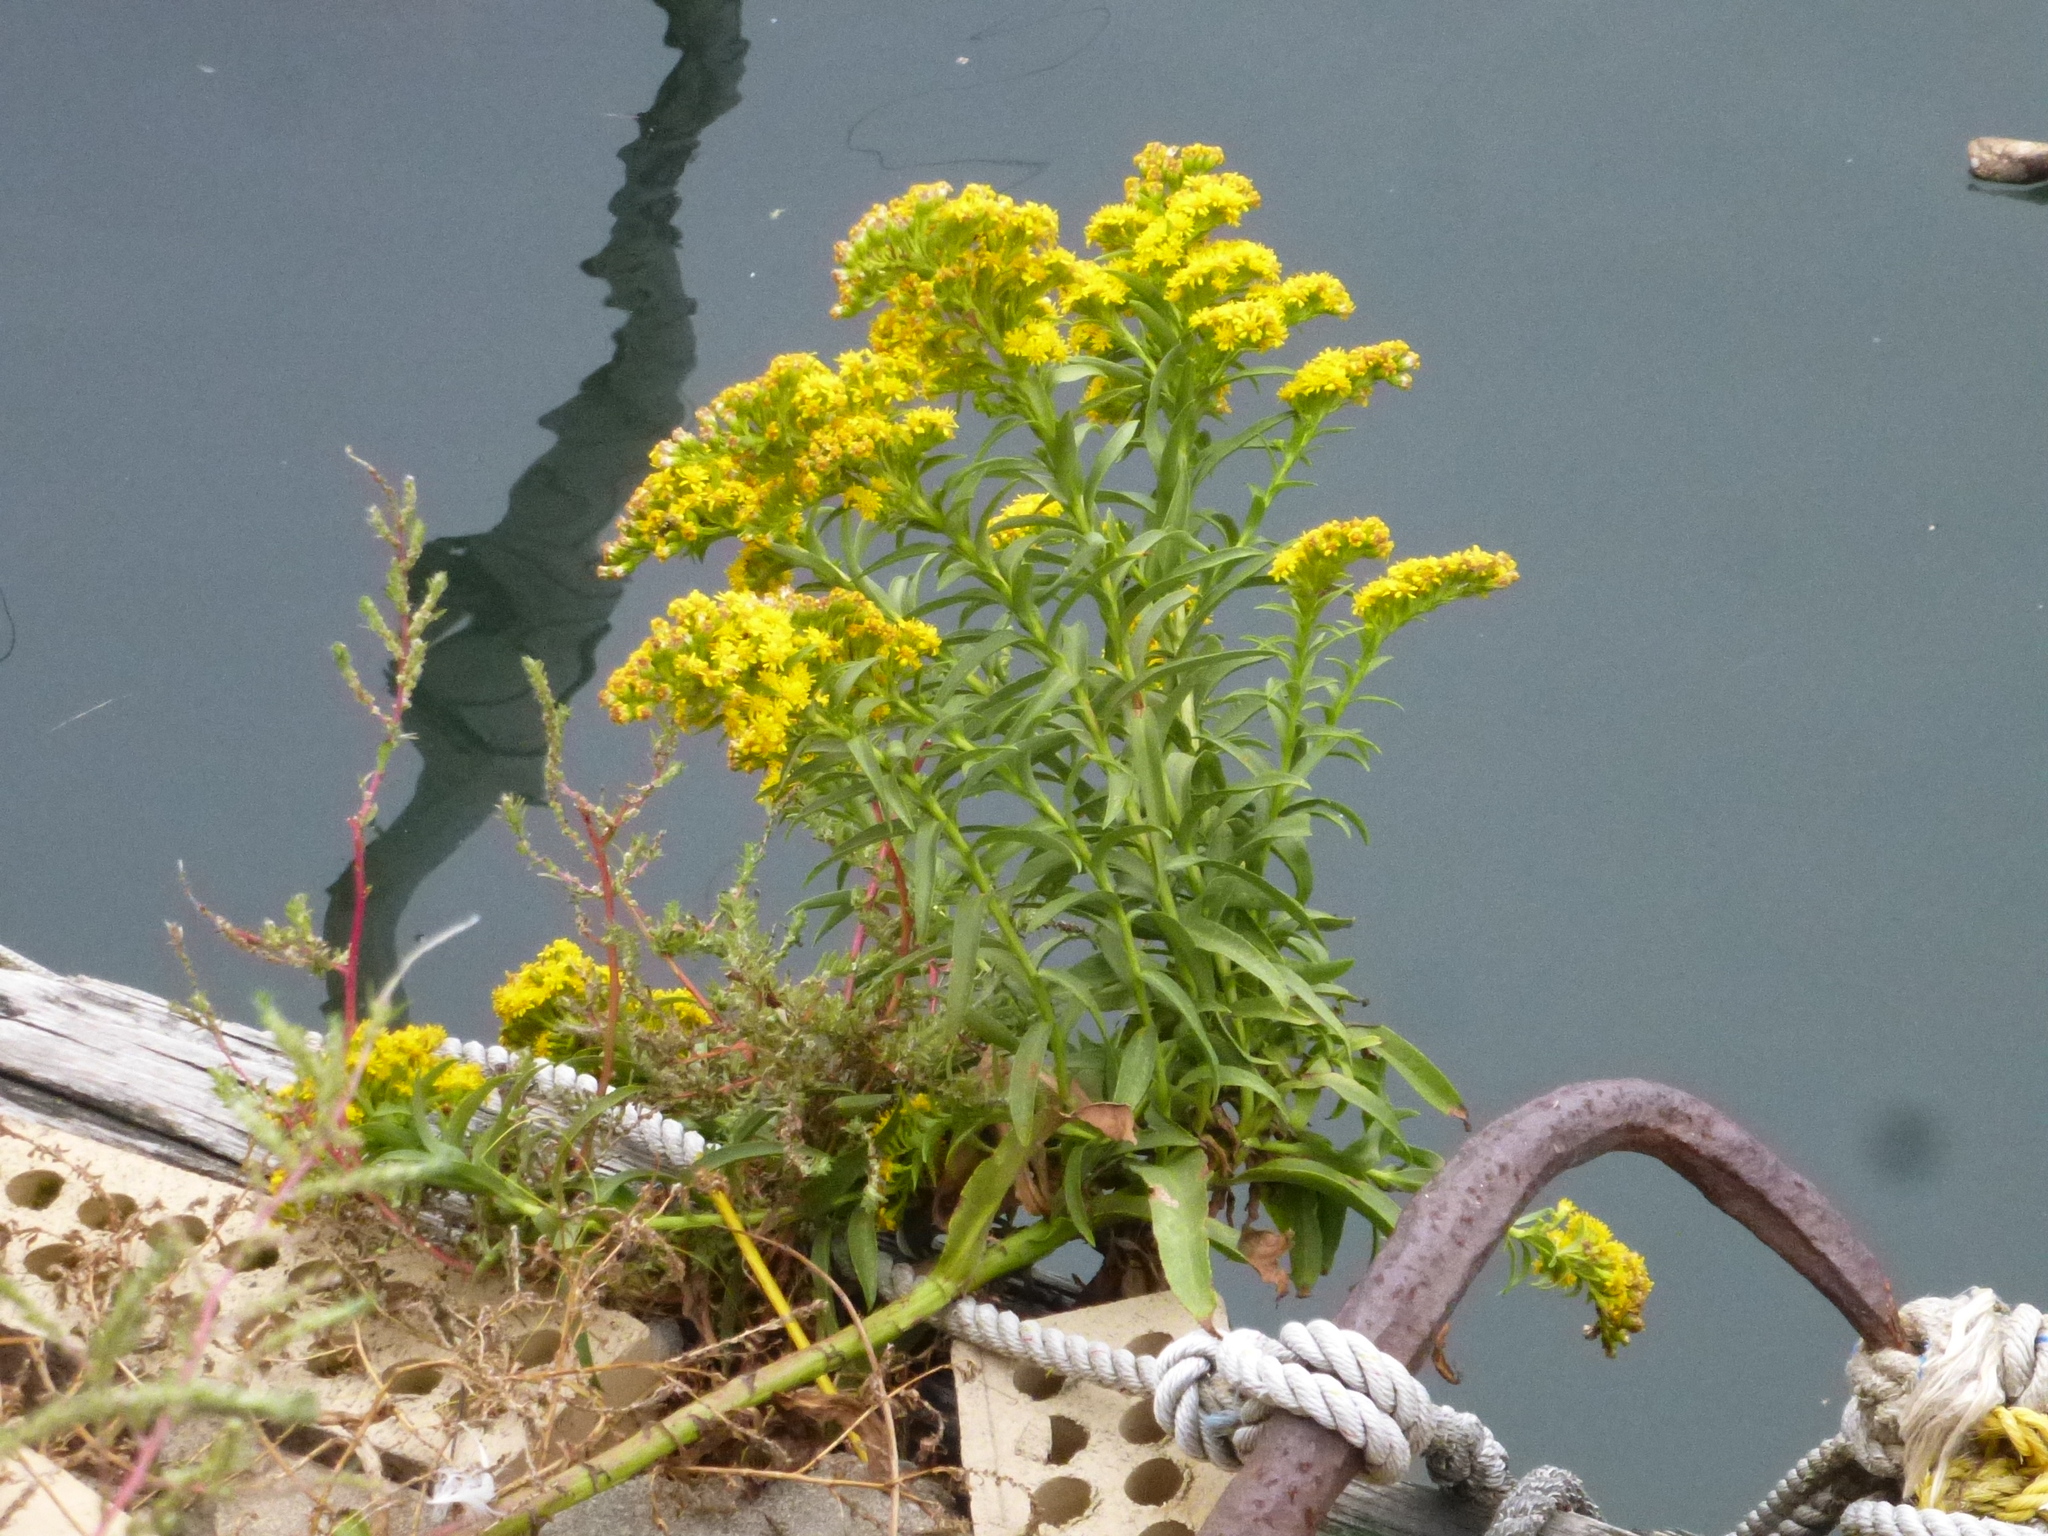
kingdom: Plantae
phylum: Tracheophyta
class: Magnoliopsida
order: Asterales
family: Asteraceae
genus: Solidago
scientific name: Solidago sempervirens
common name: Salt-marsh goldenrod
